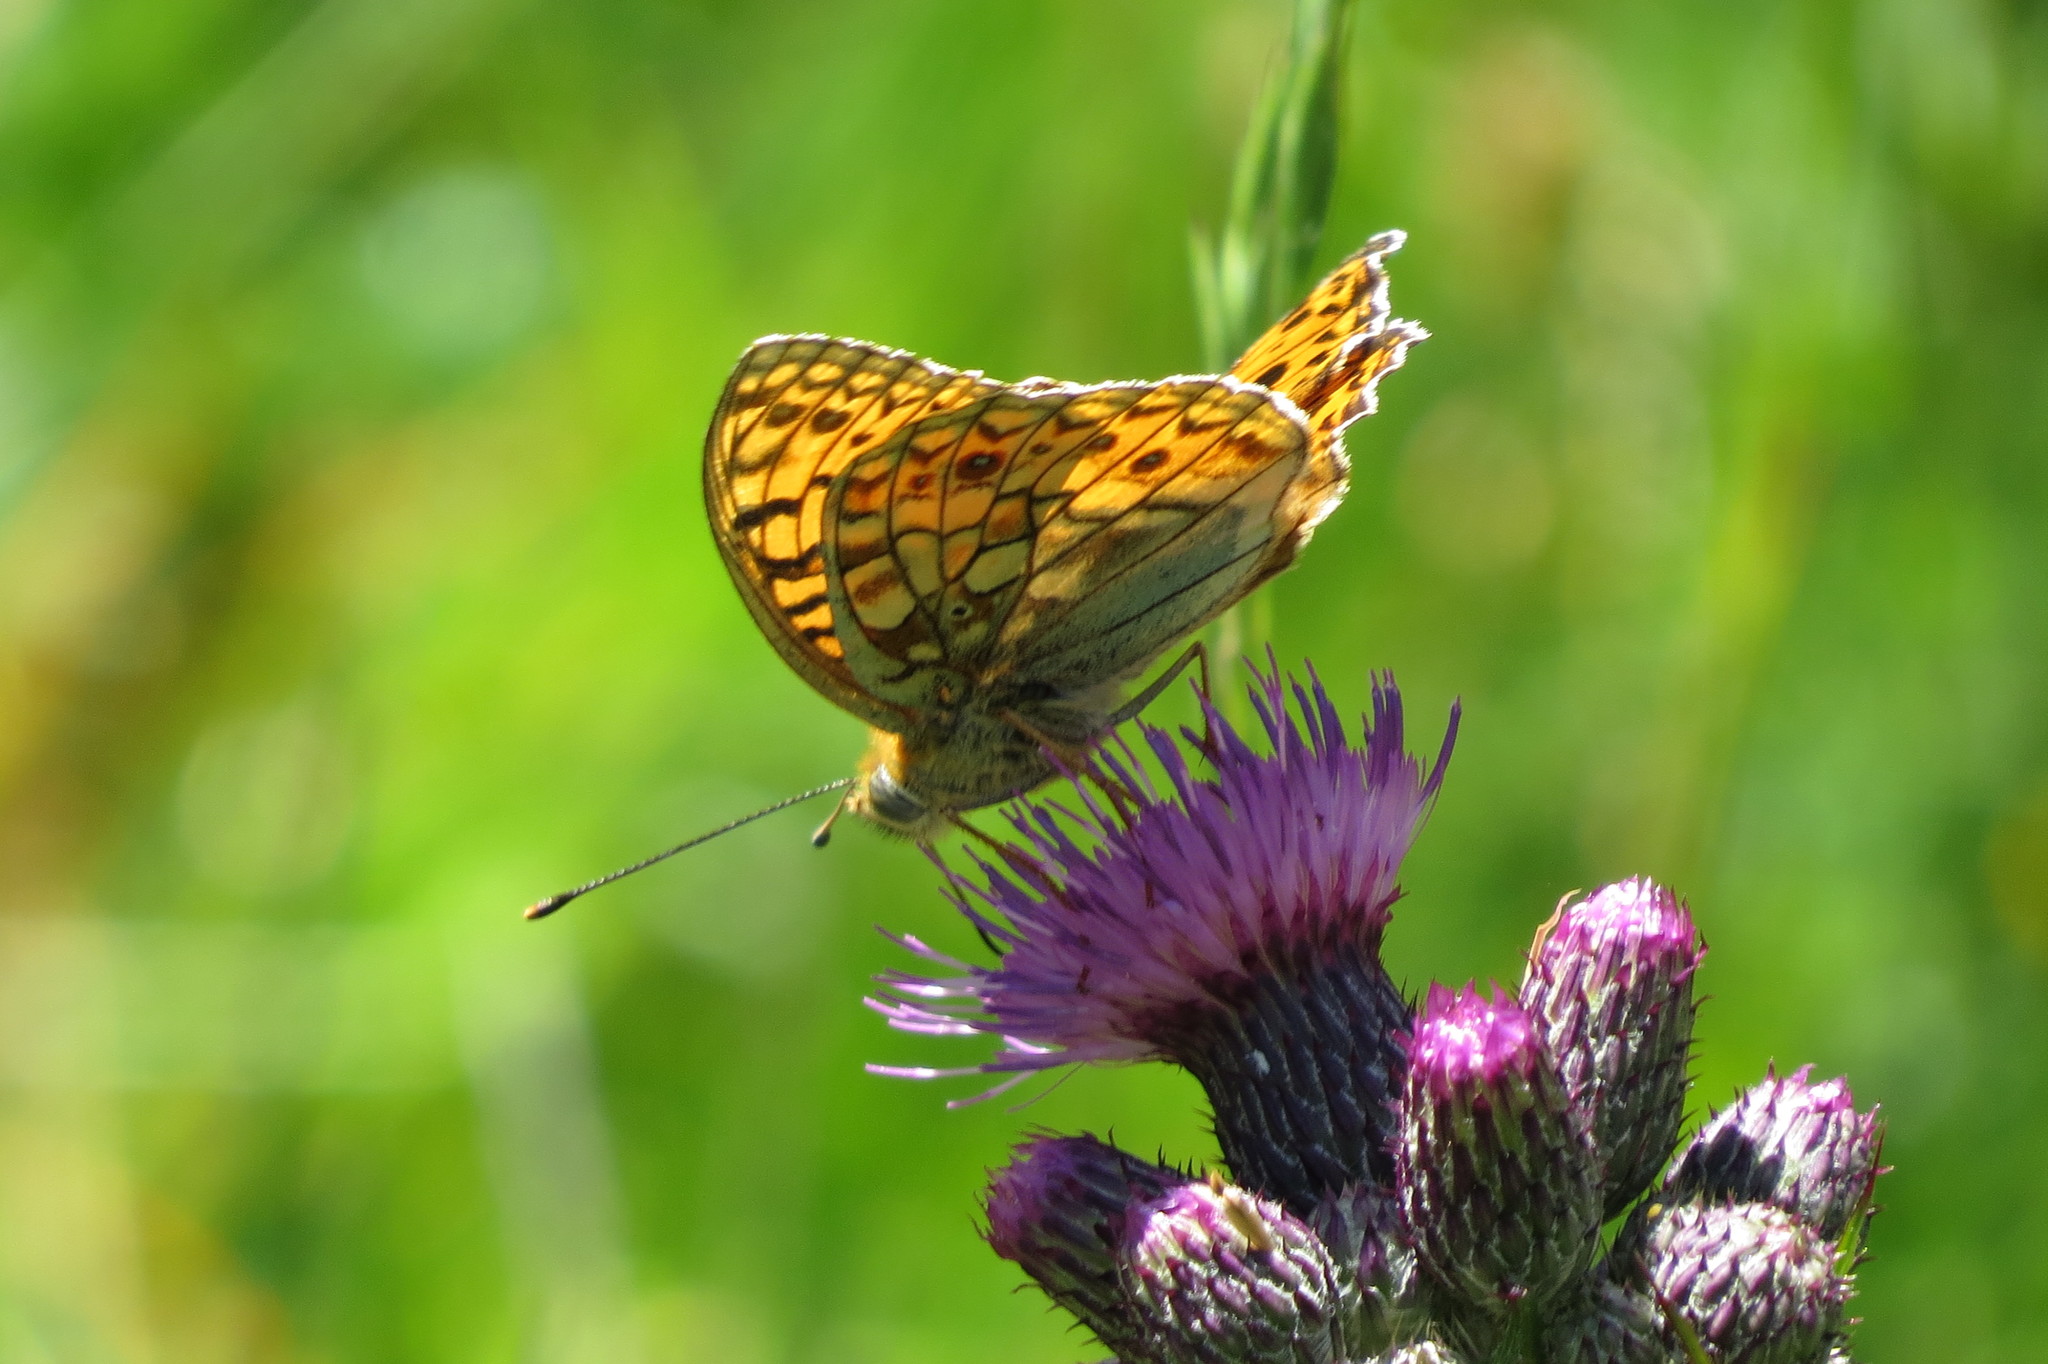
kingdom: Animalia
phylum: Arthropoda
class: Insecta
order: Lepidoptera
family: Nymphalidae
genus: Fabriciana
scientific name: Fabriciana niobe
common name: Niobe fritillary
